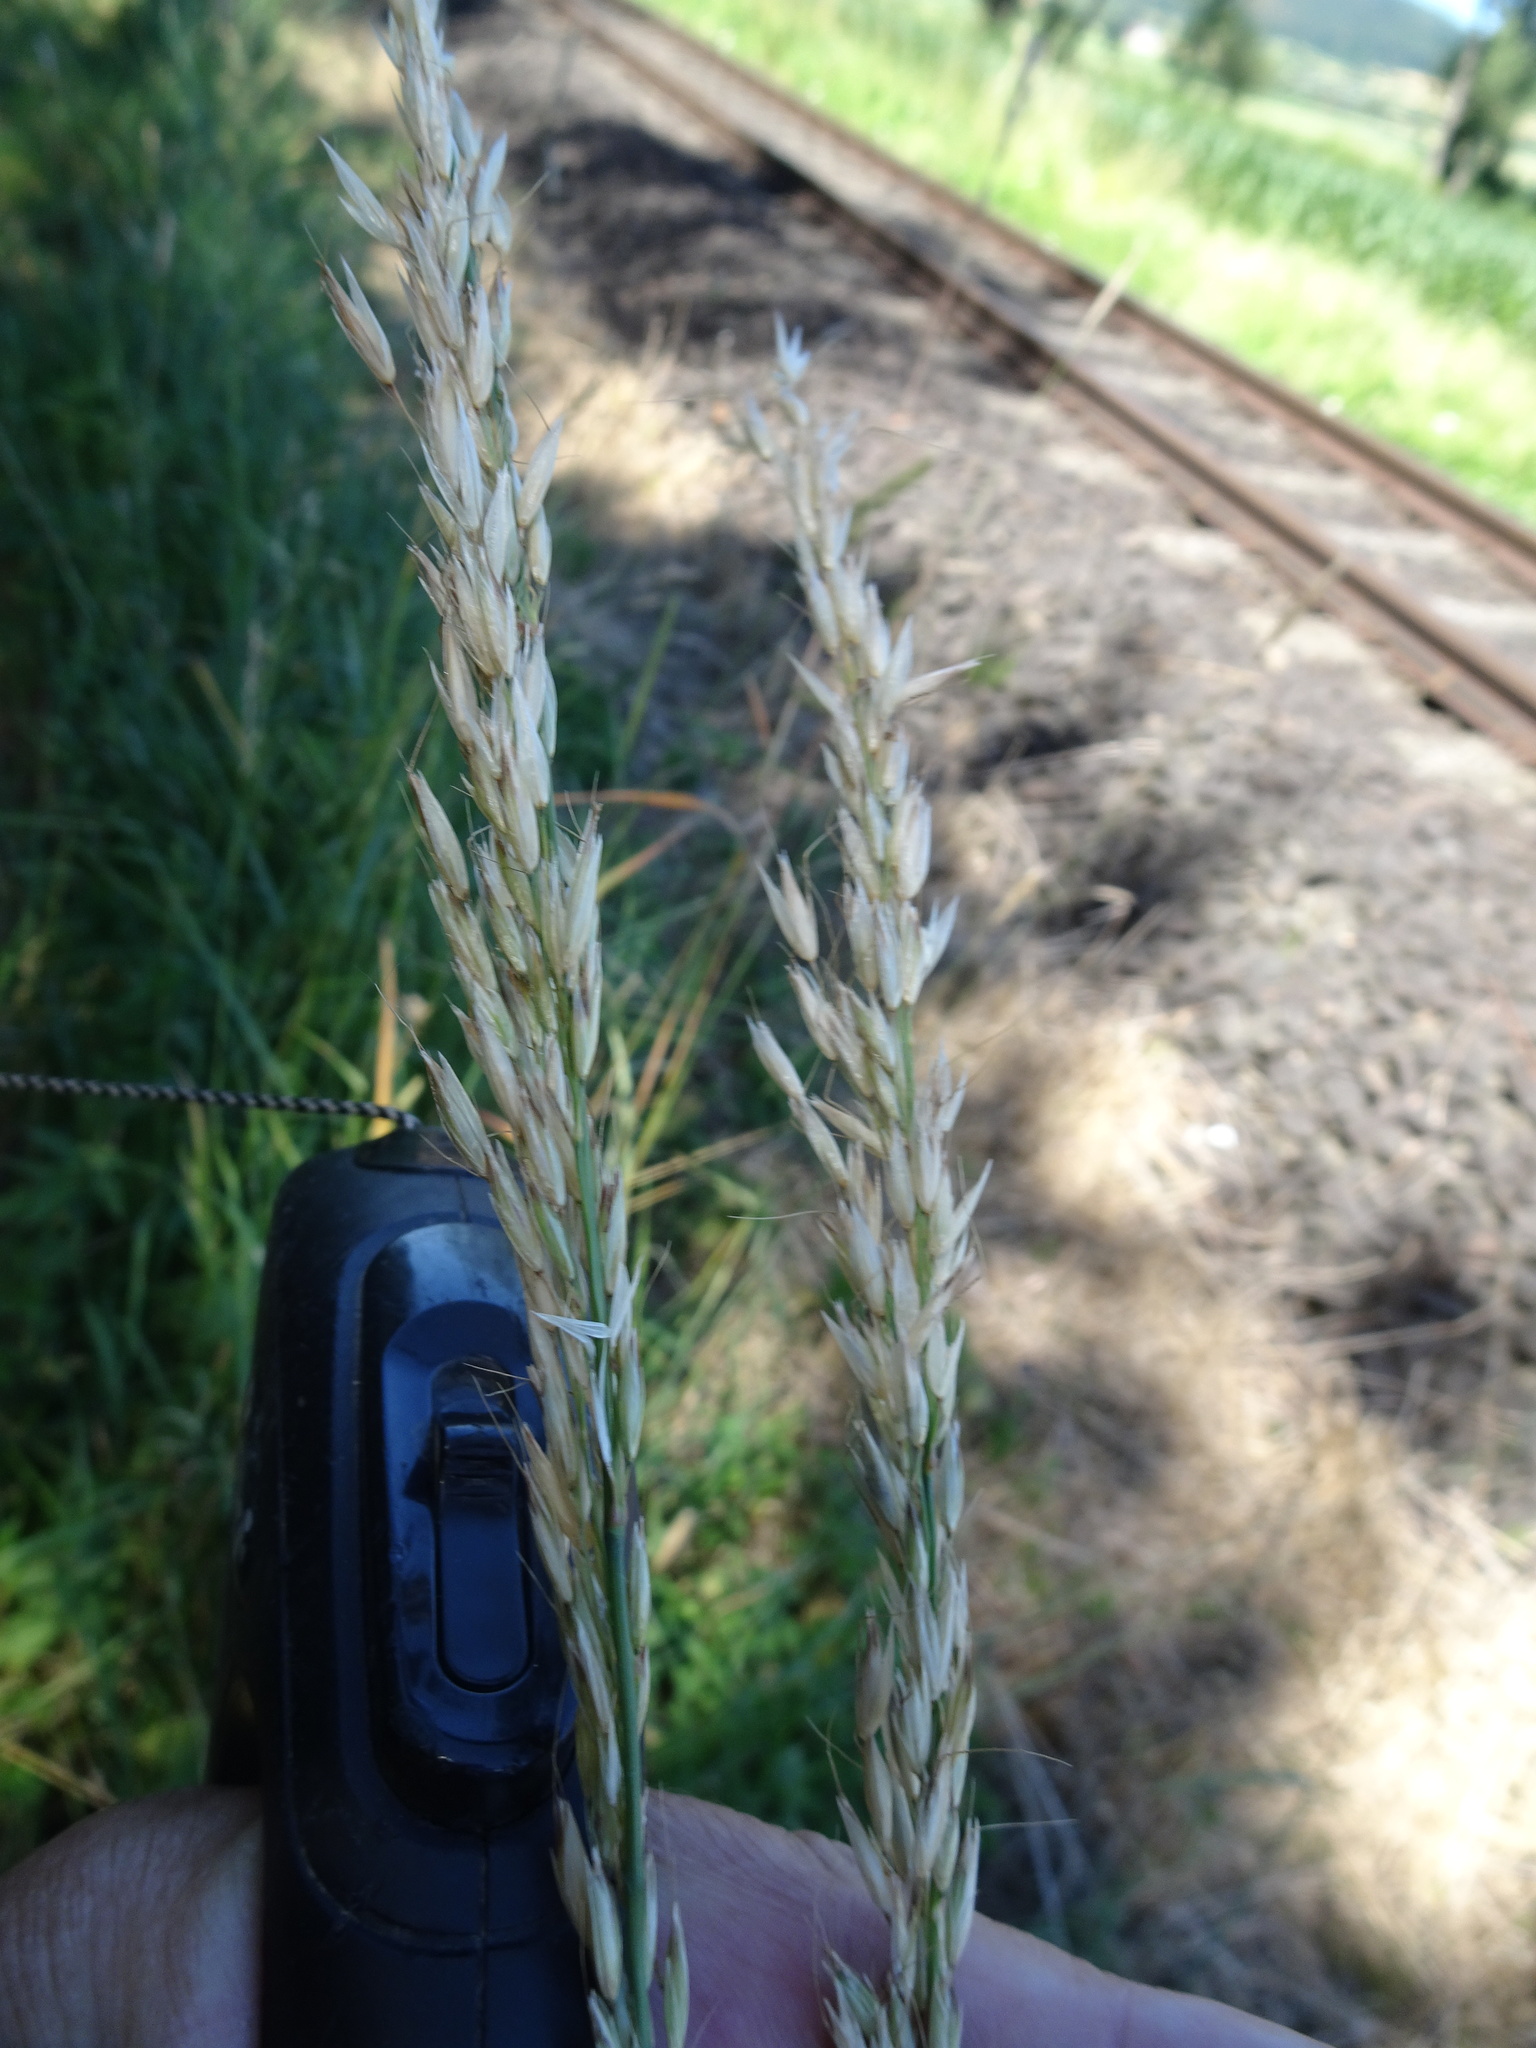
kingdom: Plantae
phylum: Tracheophyta
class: Liliopsida
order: Poales
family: Poaceae
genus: Arrhenatherum
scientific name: Arrhenatherum elatius
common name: Tall oatgrass
